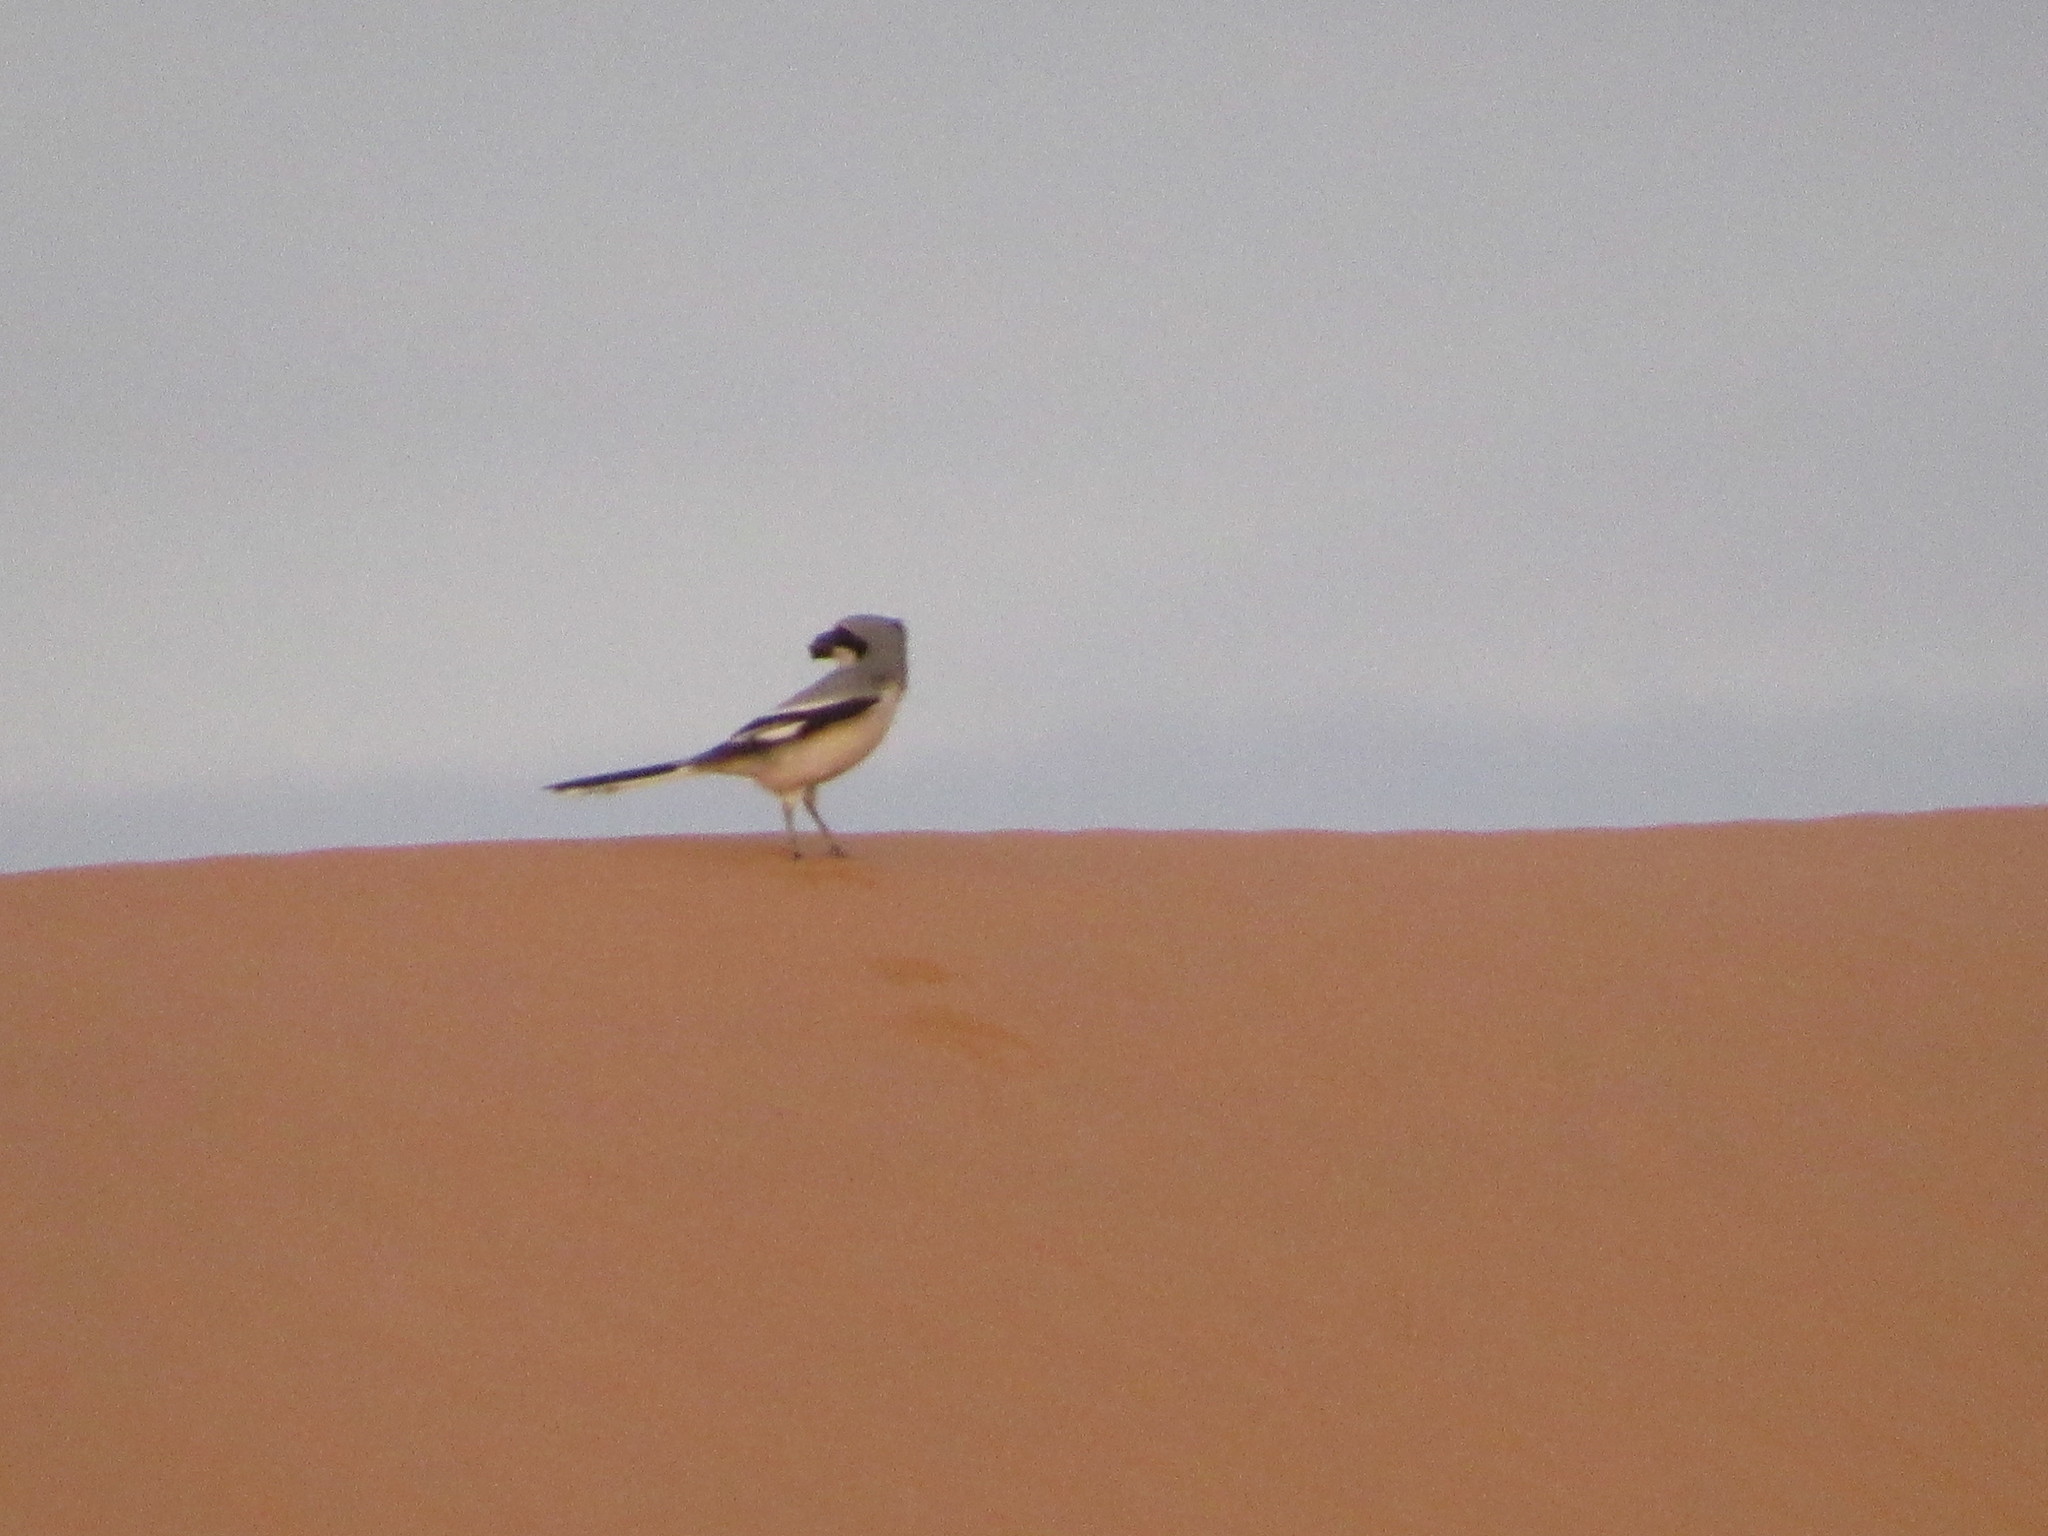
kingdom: Animalia
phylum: Chordata
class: Aves
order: Passeriformes
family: Laniidae
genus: Lanius
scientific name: Lanius excubitor
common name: Great grey shrike
